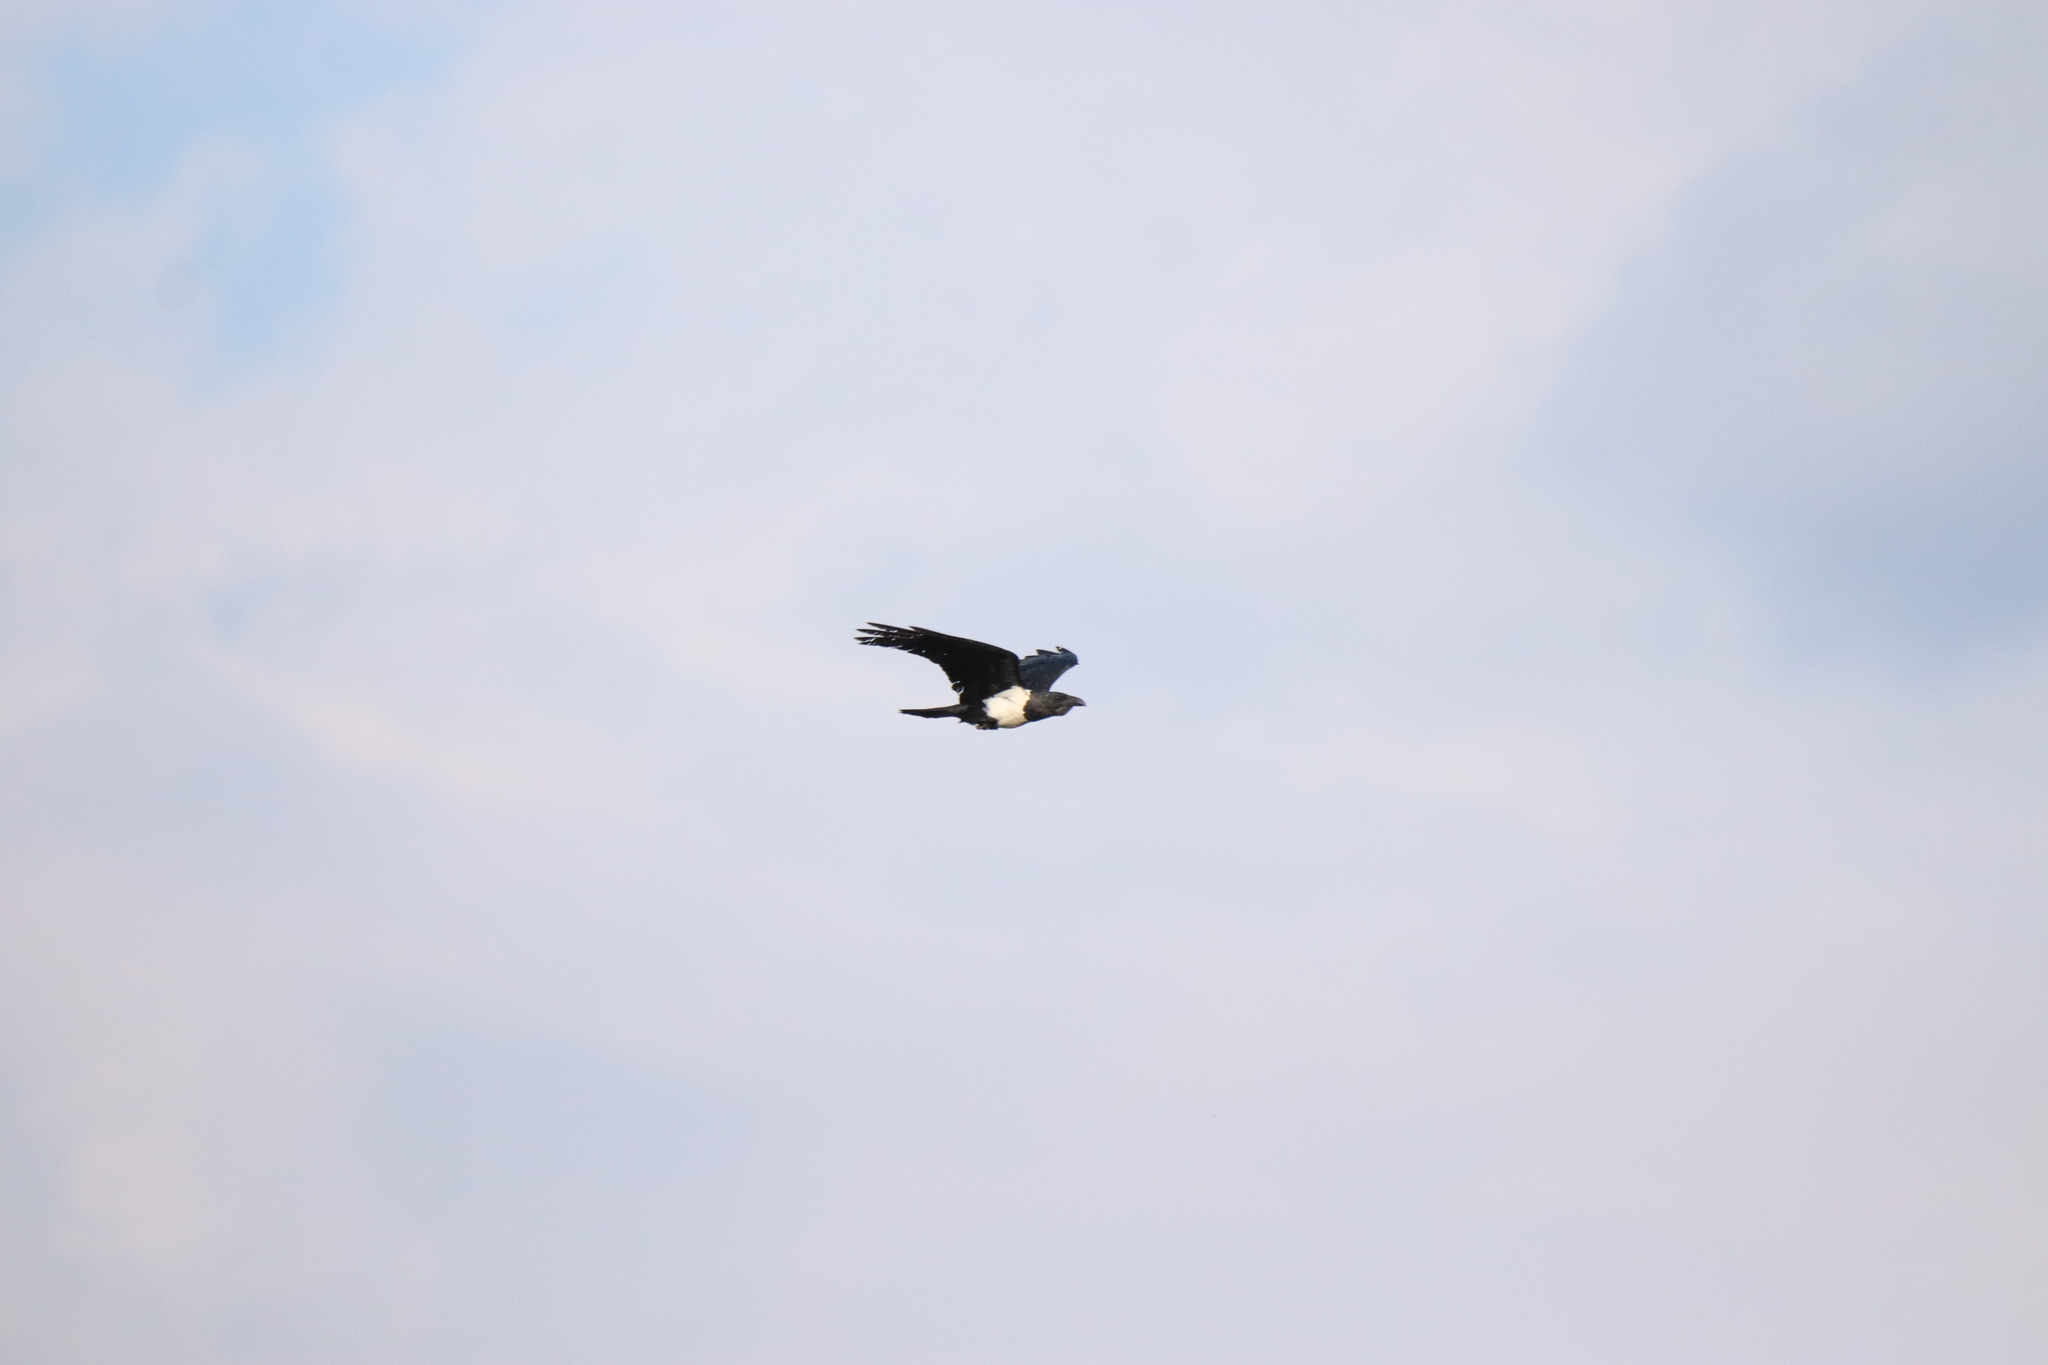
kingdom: Animalia
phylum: Chordata
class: Aves
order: Passeriformes
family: Corvidae
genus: Corvus
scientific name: Corvus albus
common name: Pied crow
